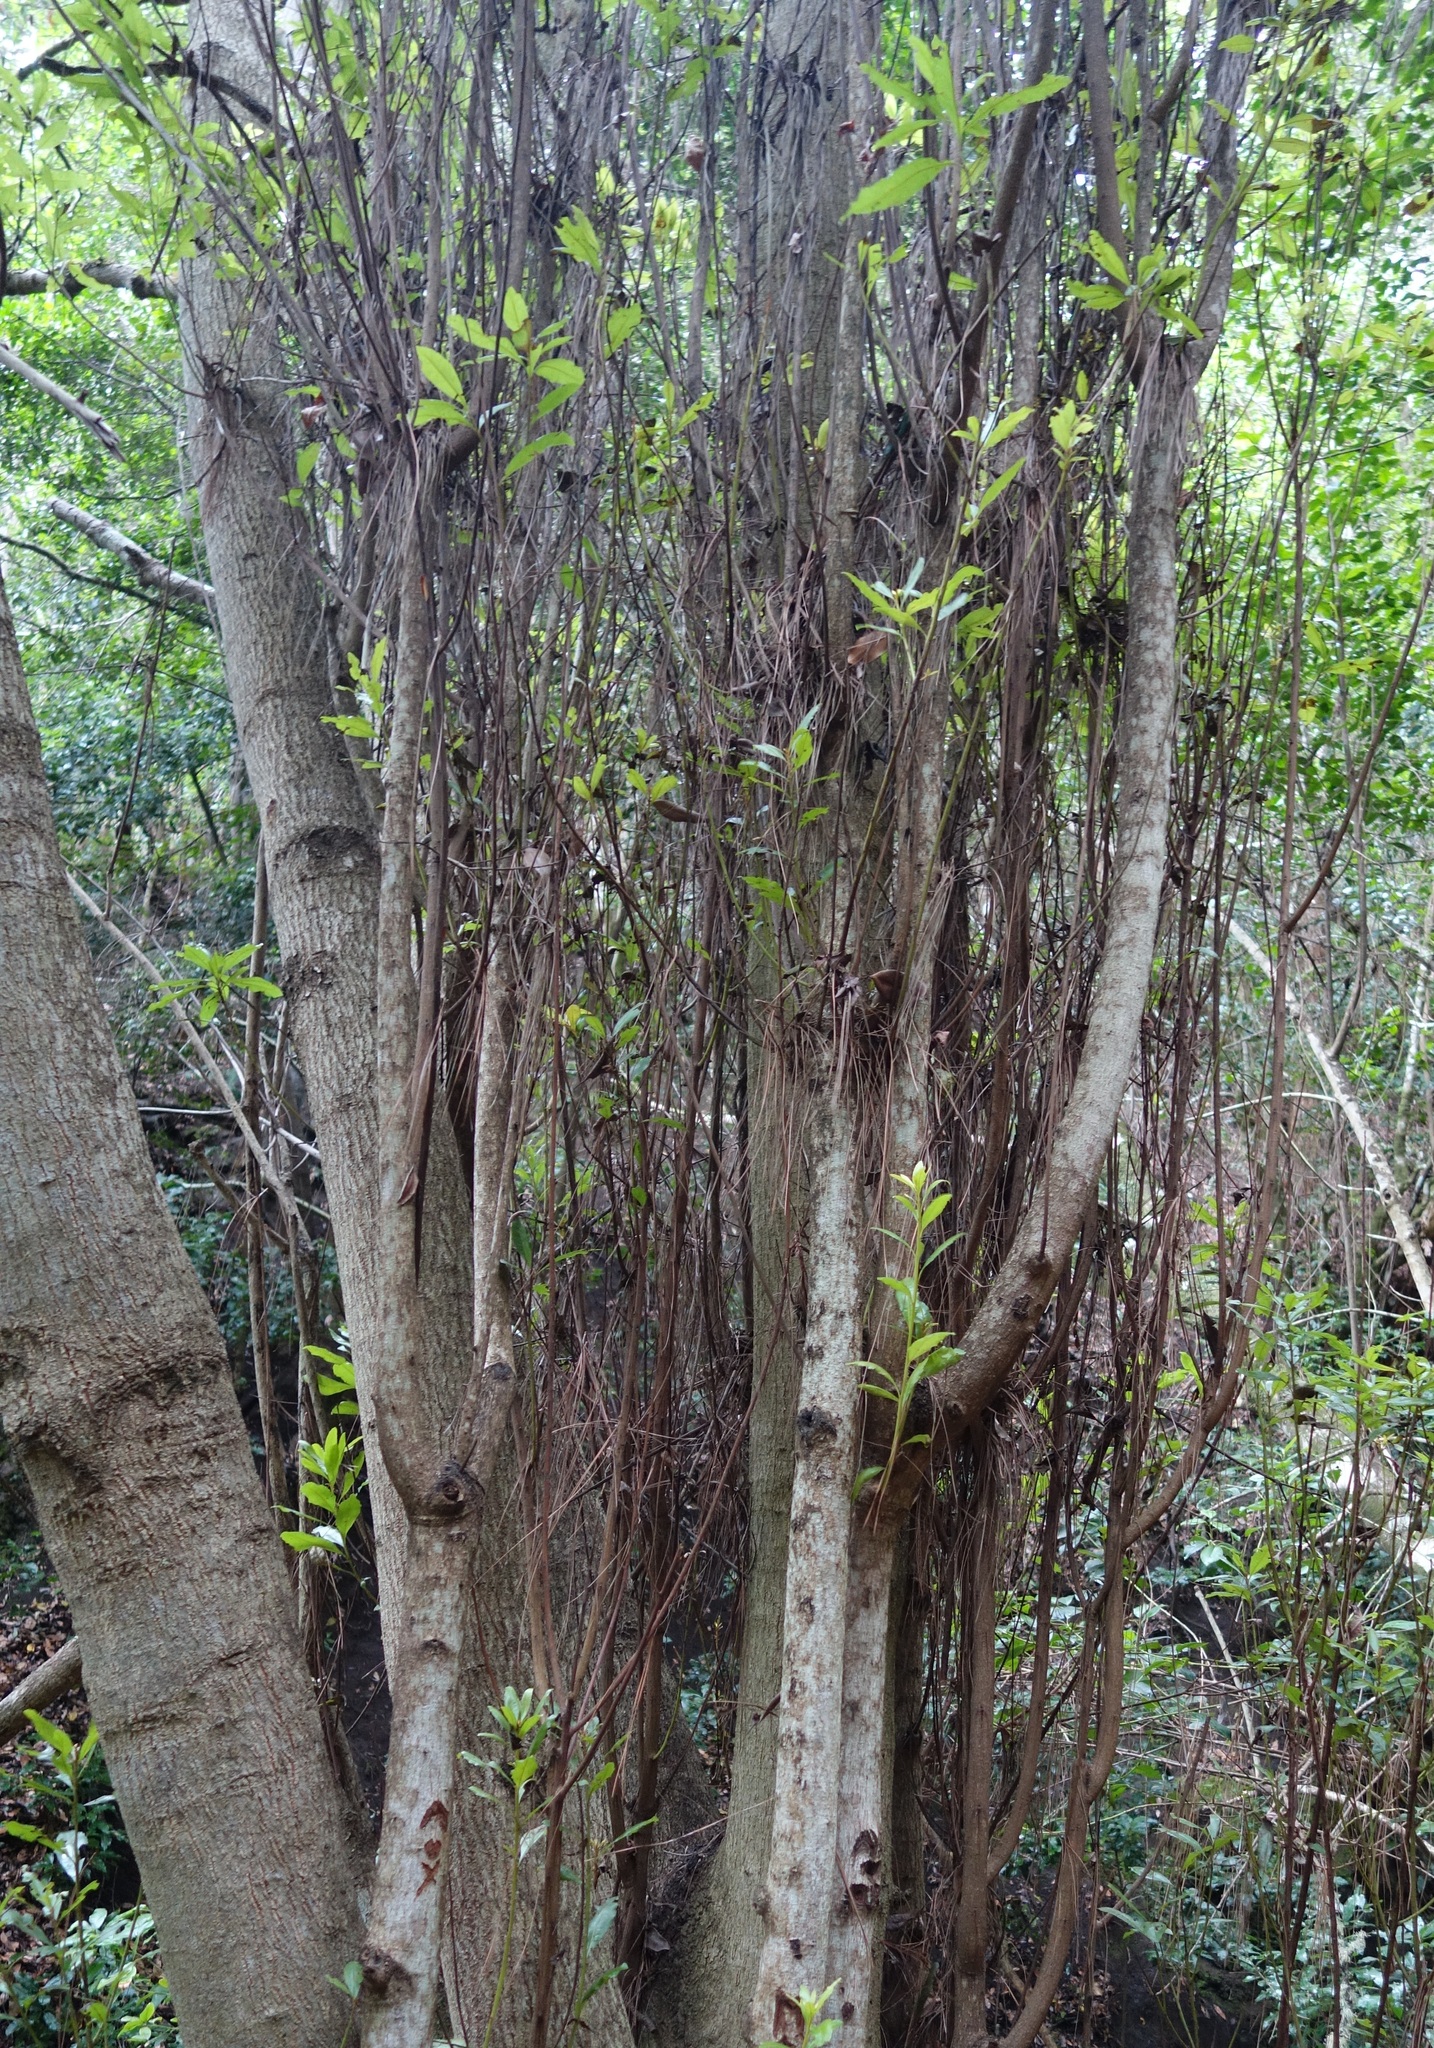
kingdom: Plantae
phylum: Tracheophyta
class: Magnoliopsida
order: Malpighiales
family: Salicaceae
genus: Salix
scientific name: Salix canariensis
